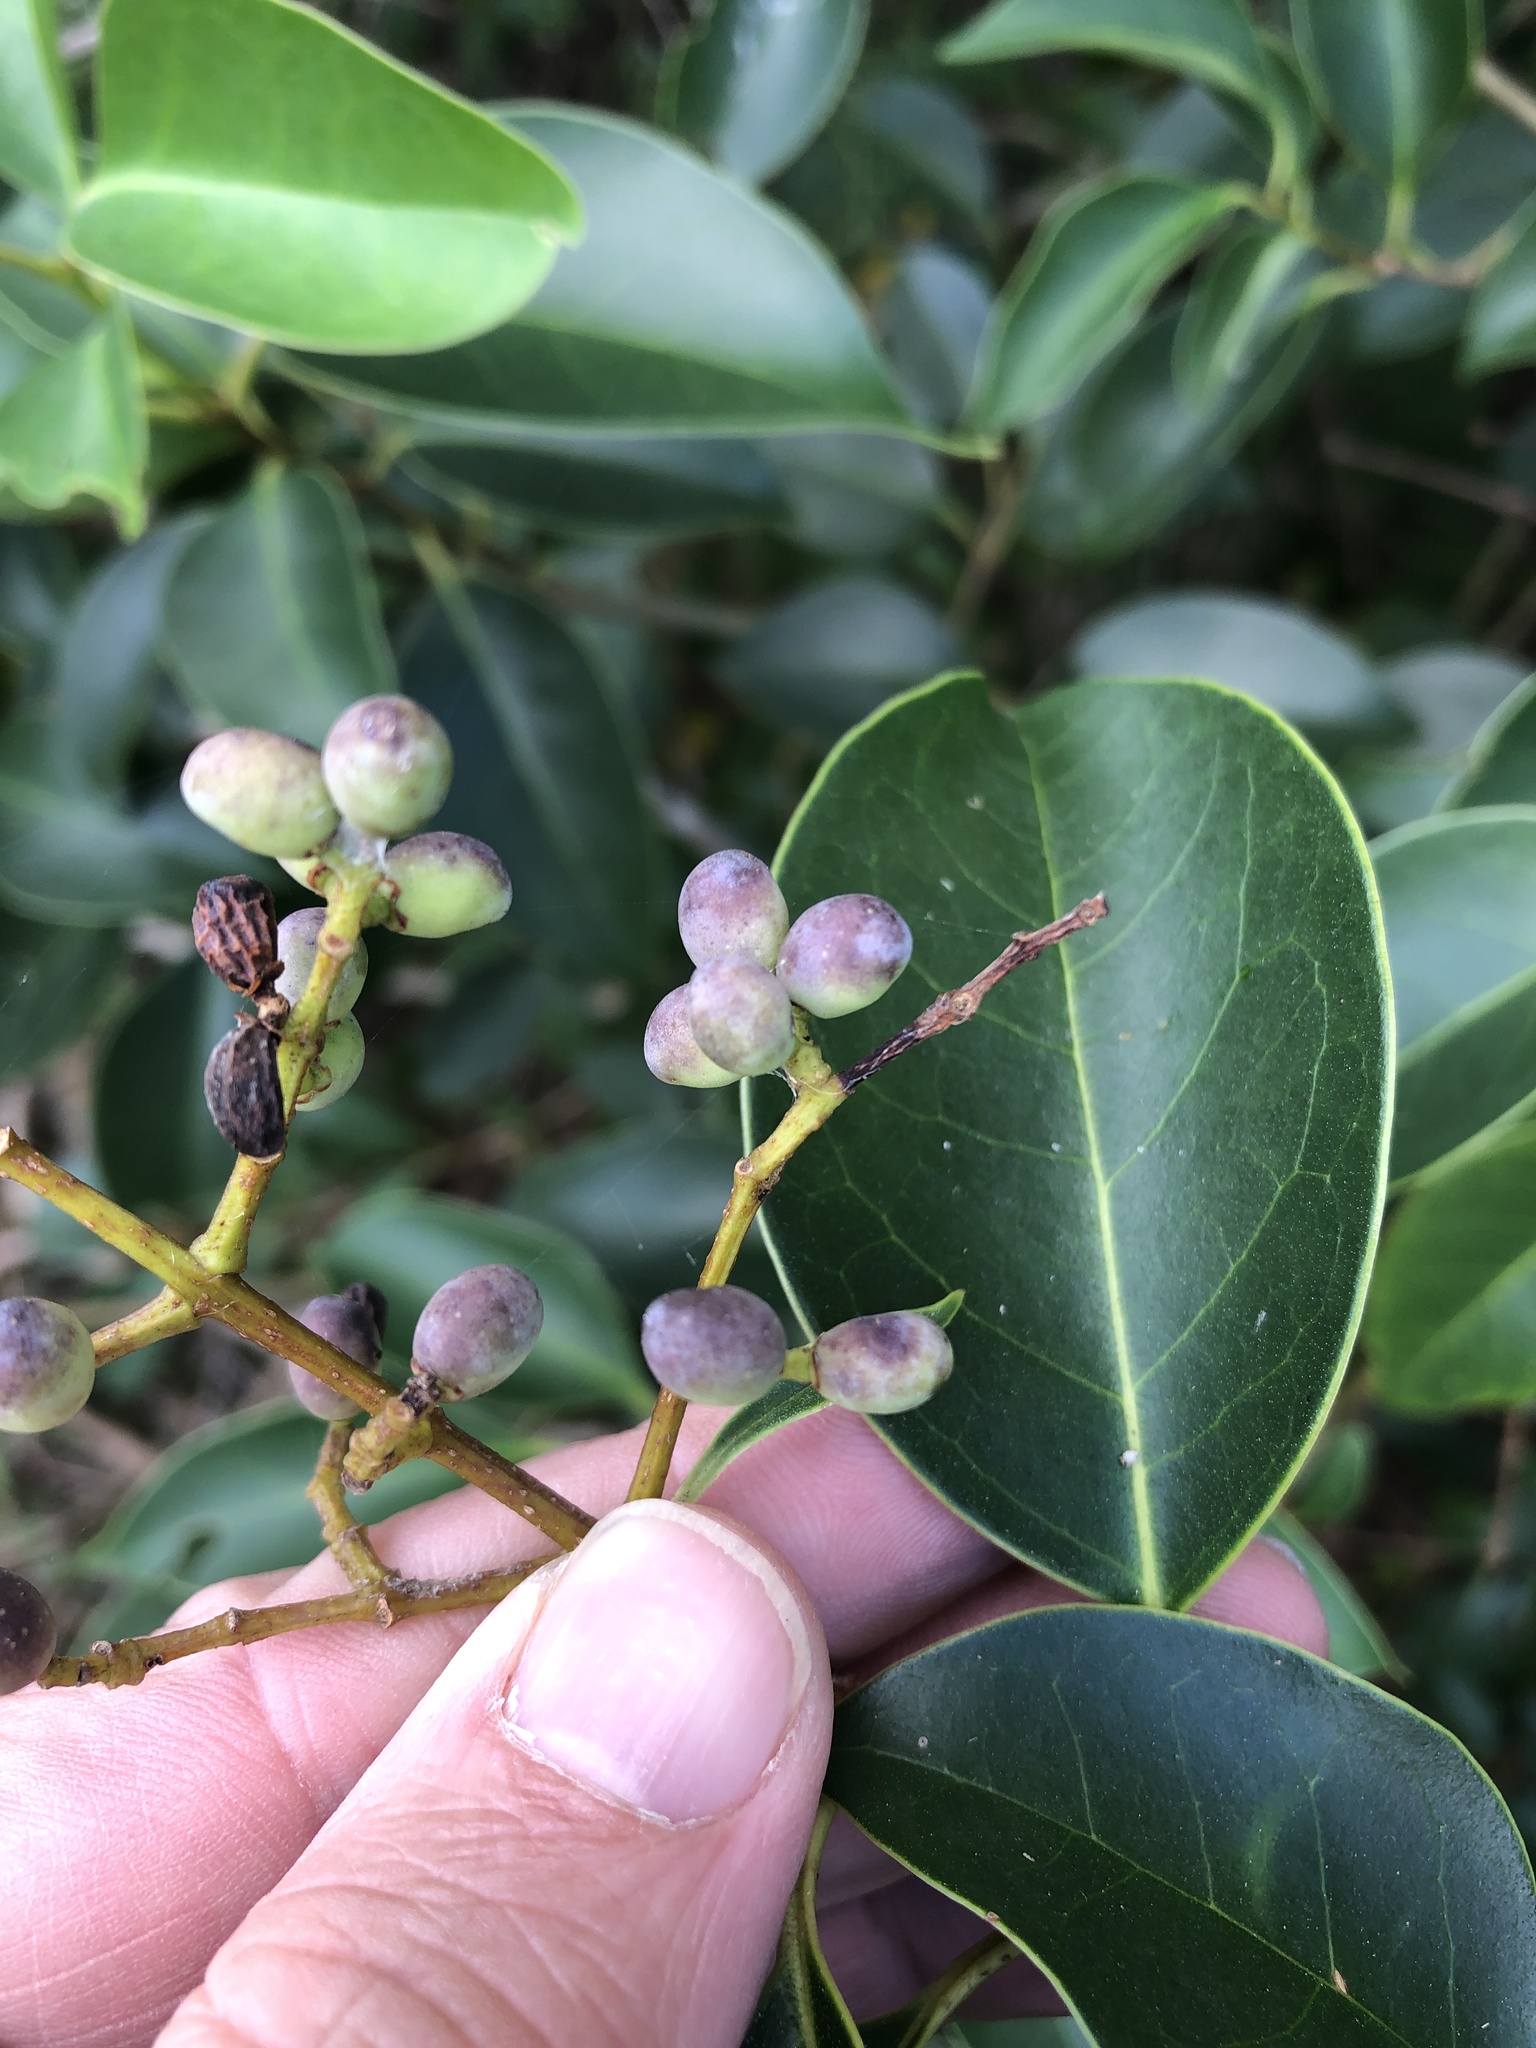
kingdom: Plantae
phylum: Tracheophyta
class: Magnoliopsida
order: Lamiales
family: Oleaceae
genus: Ligustrum
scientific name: Ligustrum lucidum
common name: Glossy privet
